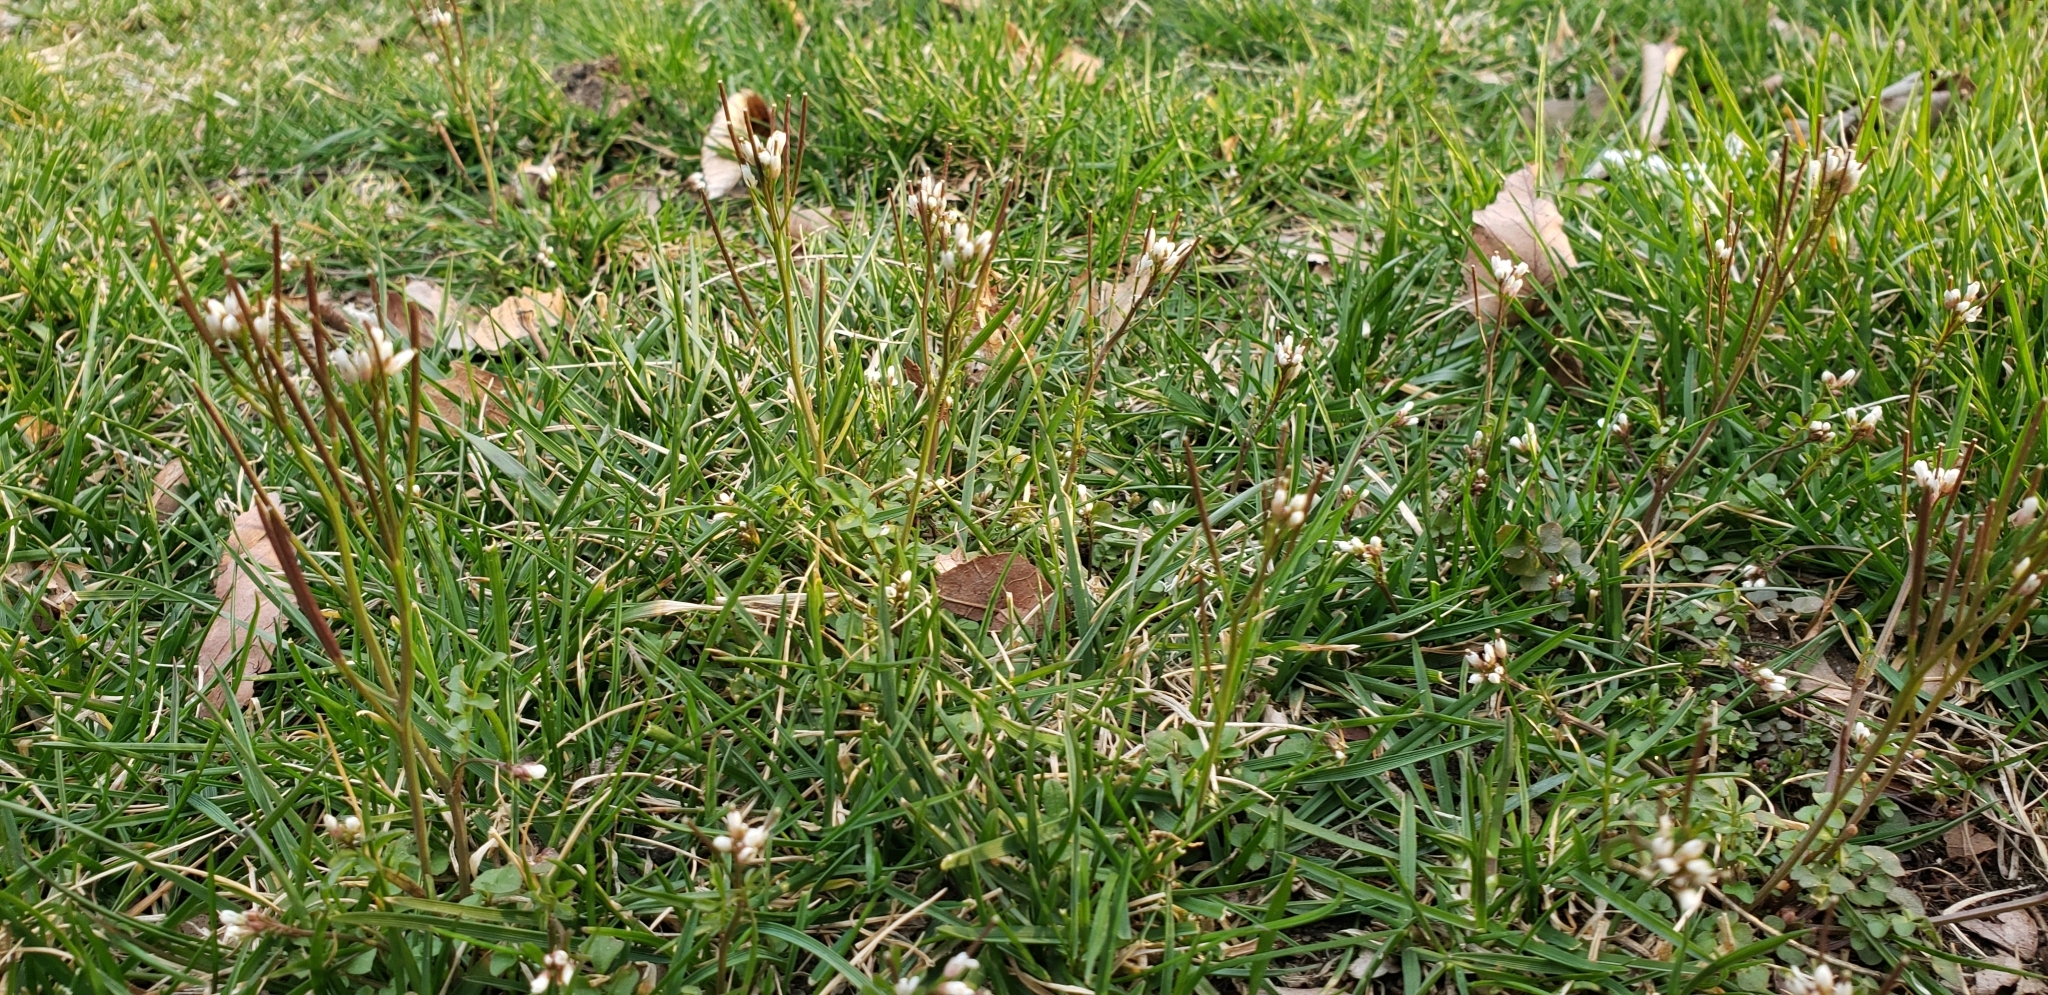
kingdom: Plantae
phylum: Tracheophyta
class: Magnoliopsida
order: Brassicales
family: Brassicaceae
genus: Cardamine
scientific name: Cardamine hirsuta
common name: Hairy bittercress
